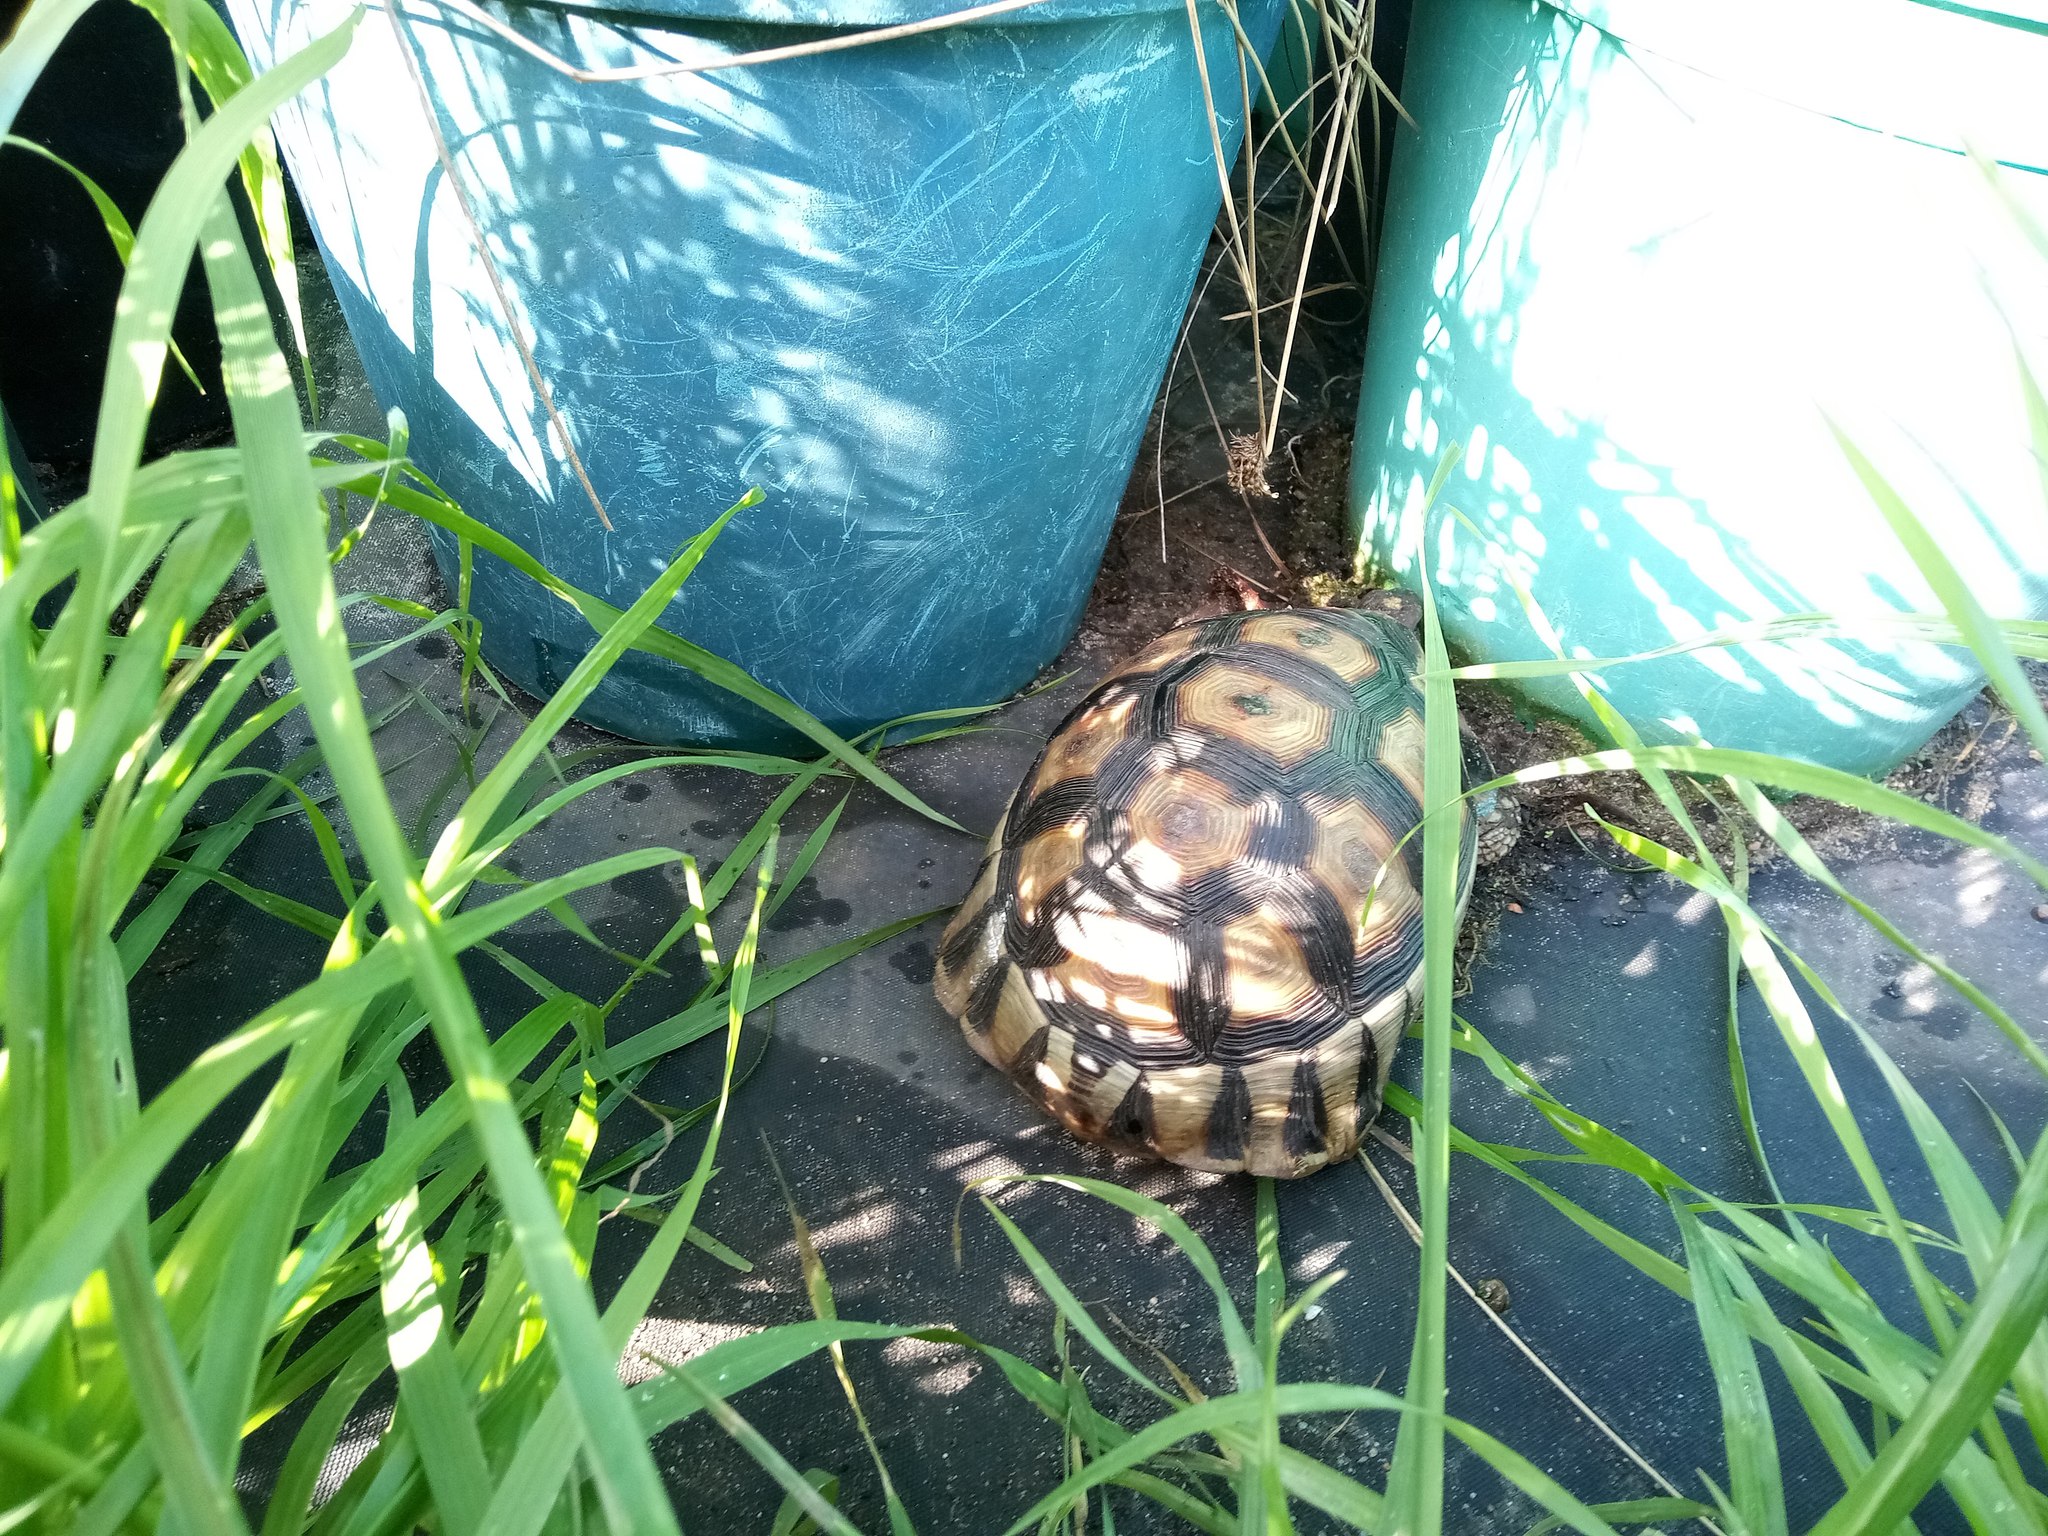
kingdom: Animalia
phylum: Chordata
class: Testudines
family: Testudinidae
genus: Chersina
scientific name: Chersina angulata
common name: South african bowsprit tortoise
